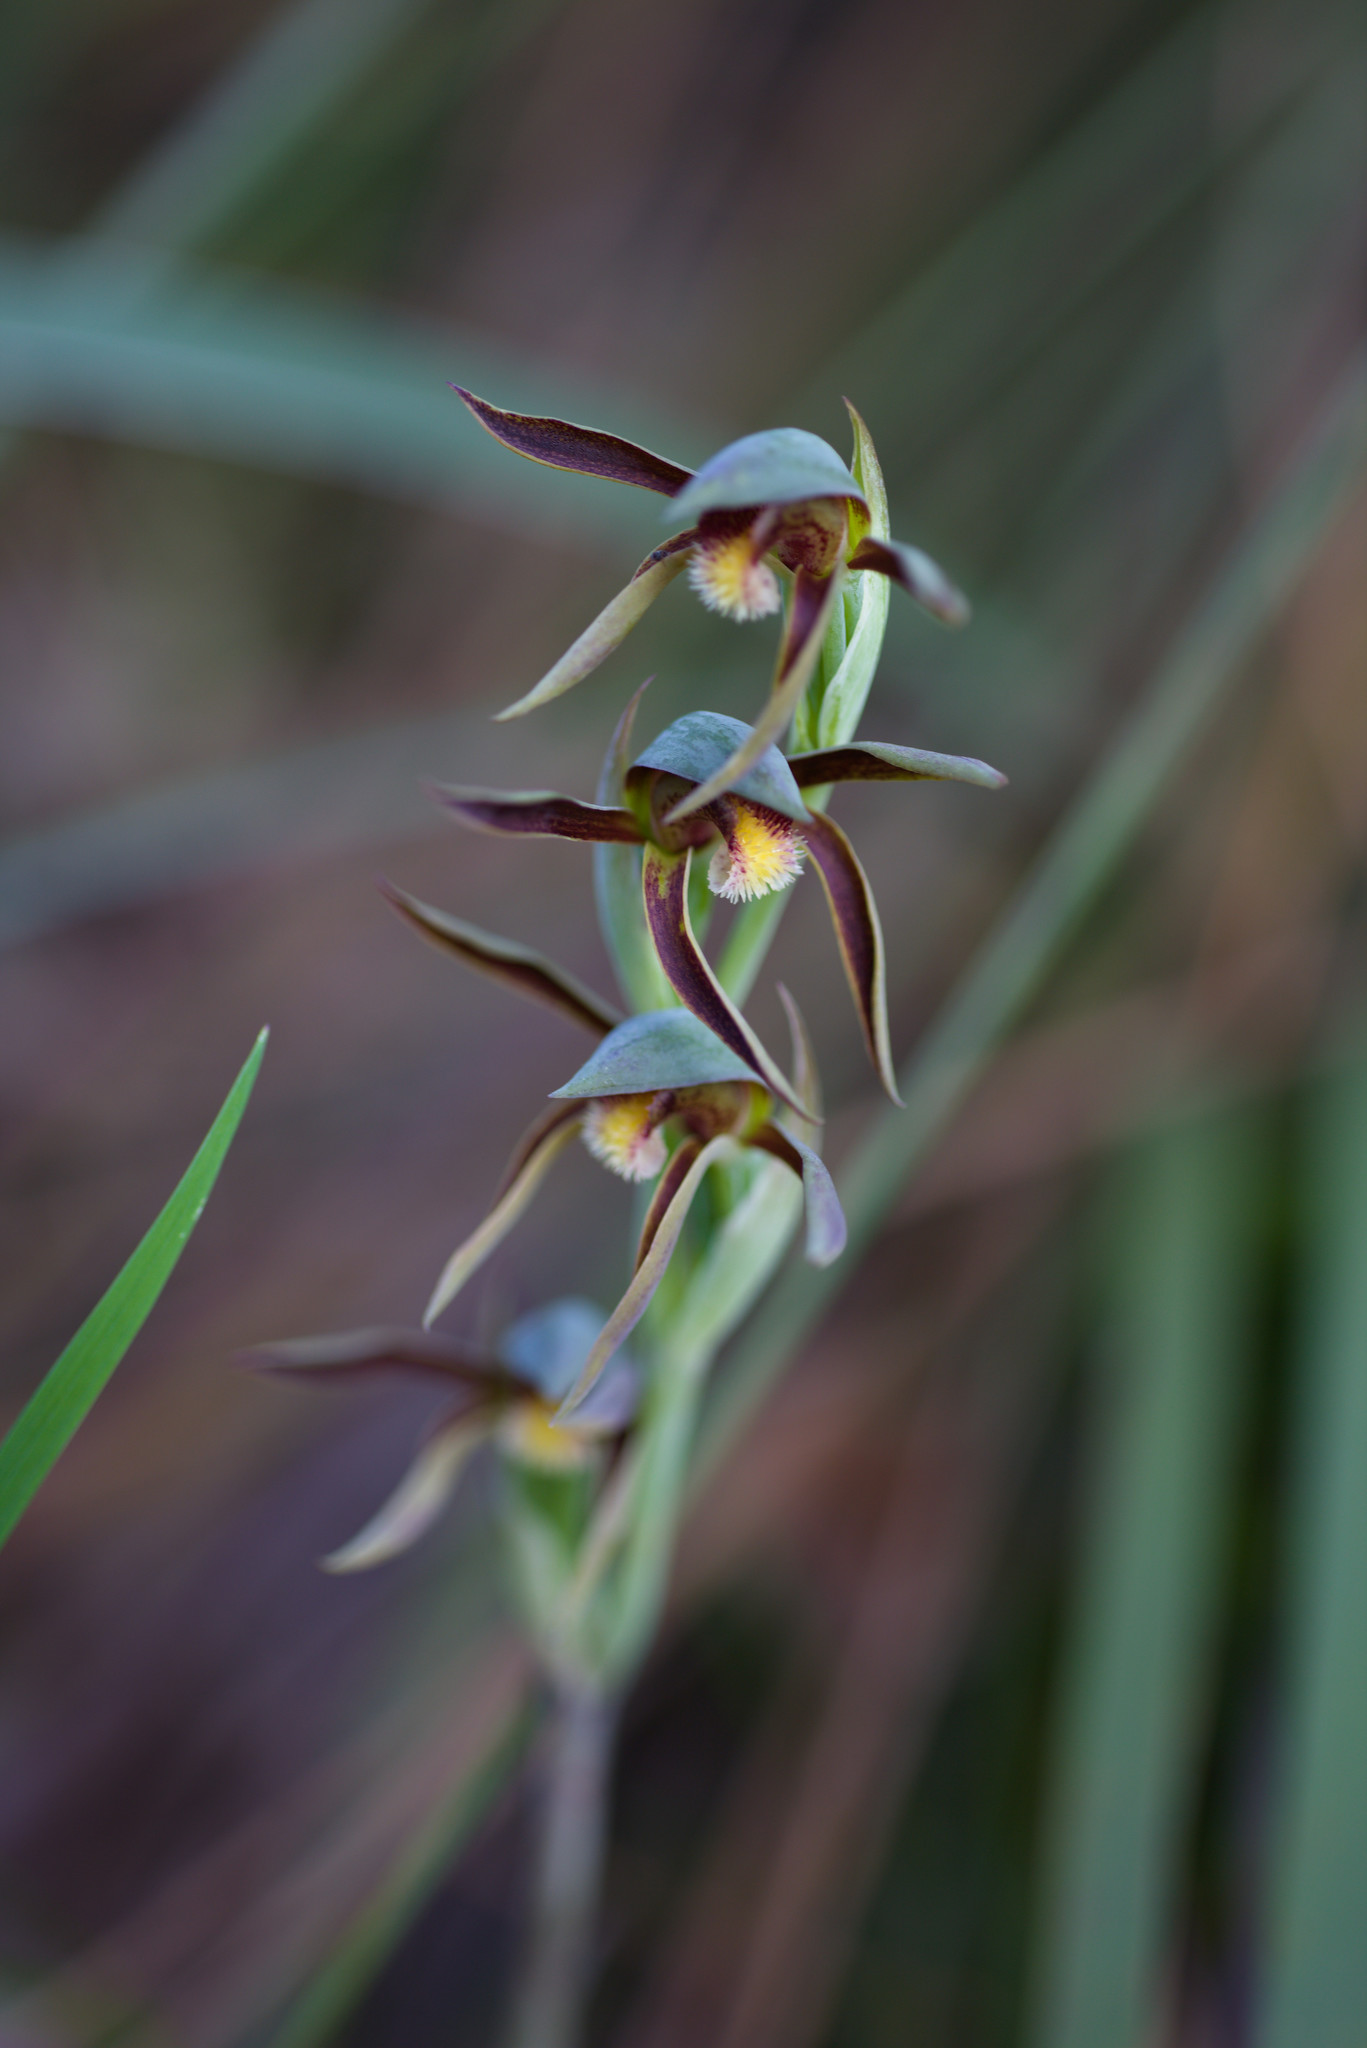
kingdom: Plantae
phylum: Tracheophyta
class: Liliopsida
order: Asparagales
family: Orchidaceae
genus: Lyperanthus
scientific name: Lyperanthus serratus
